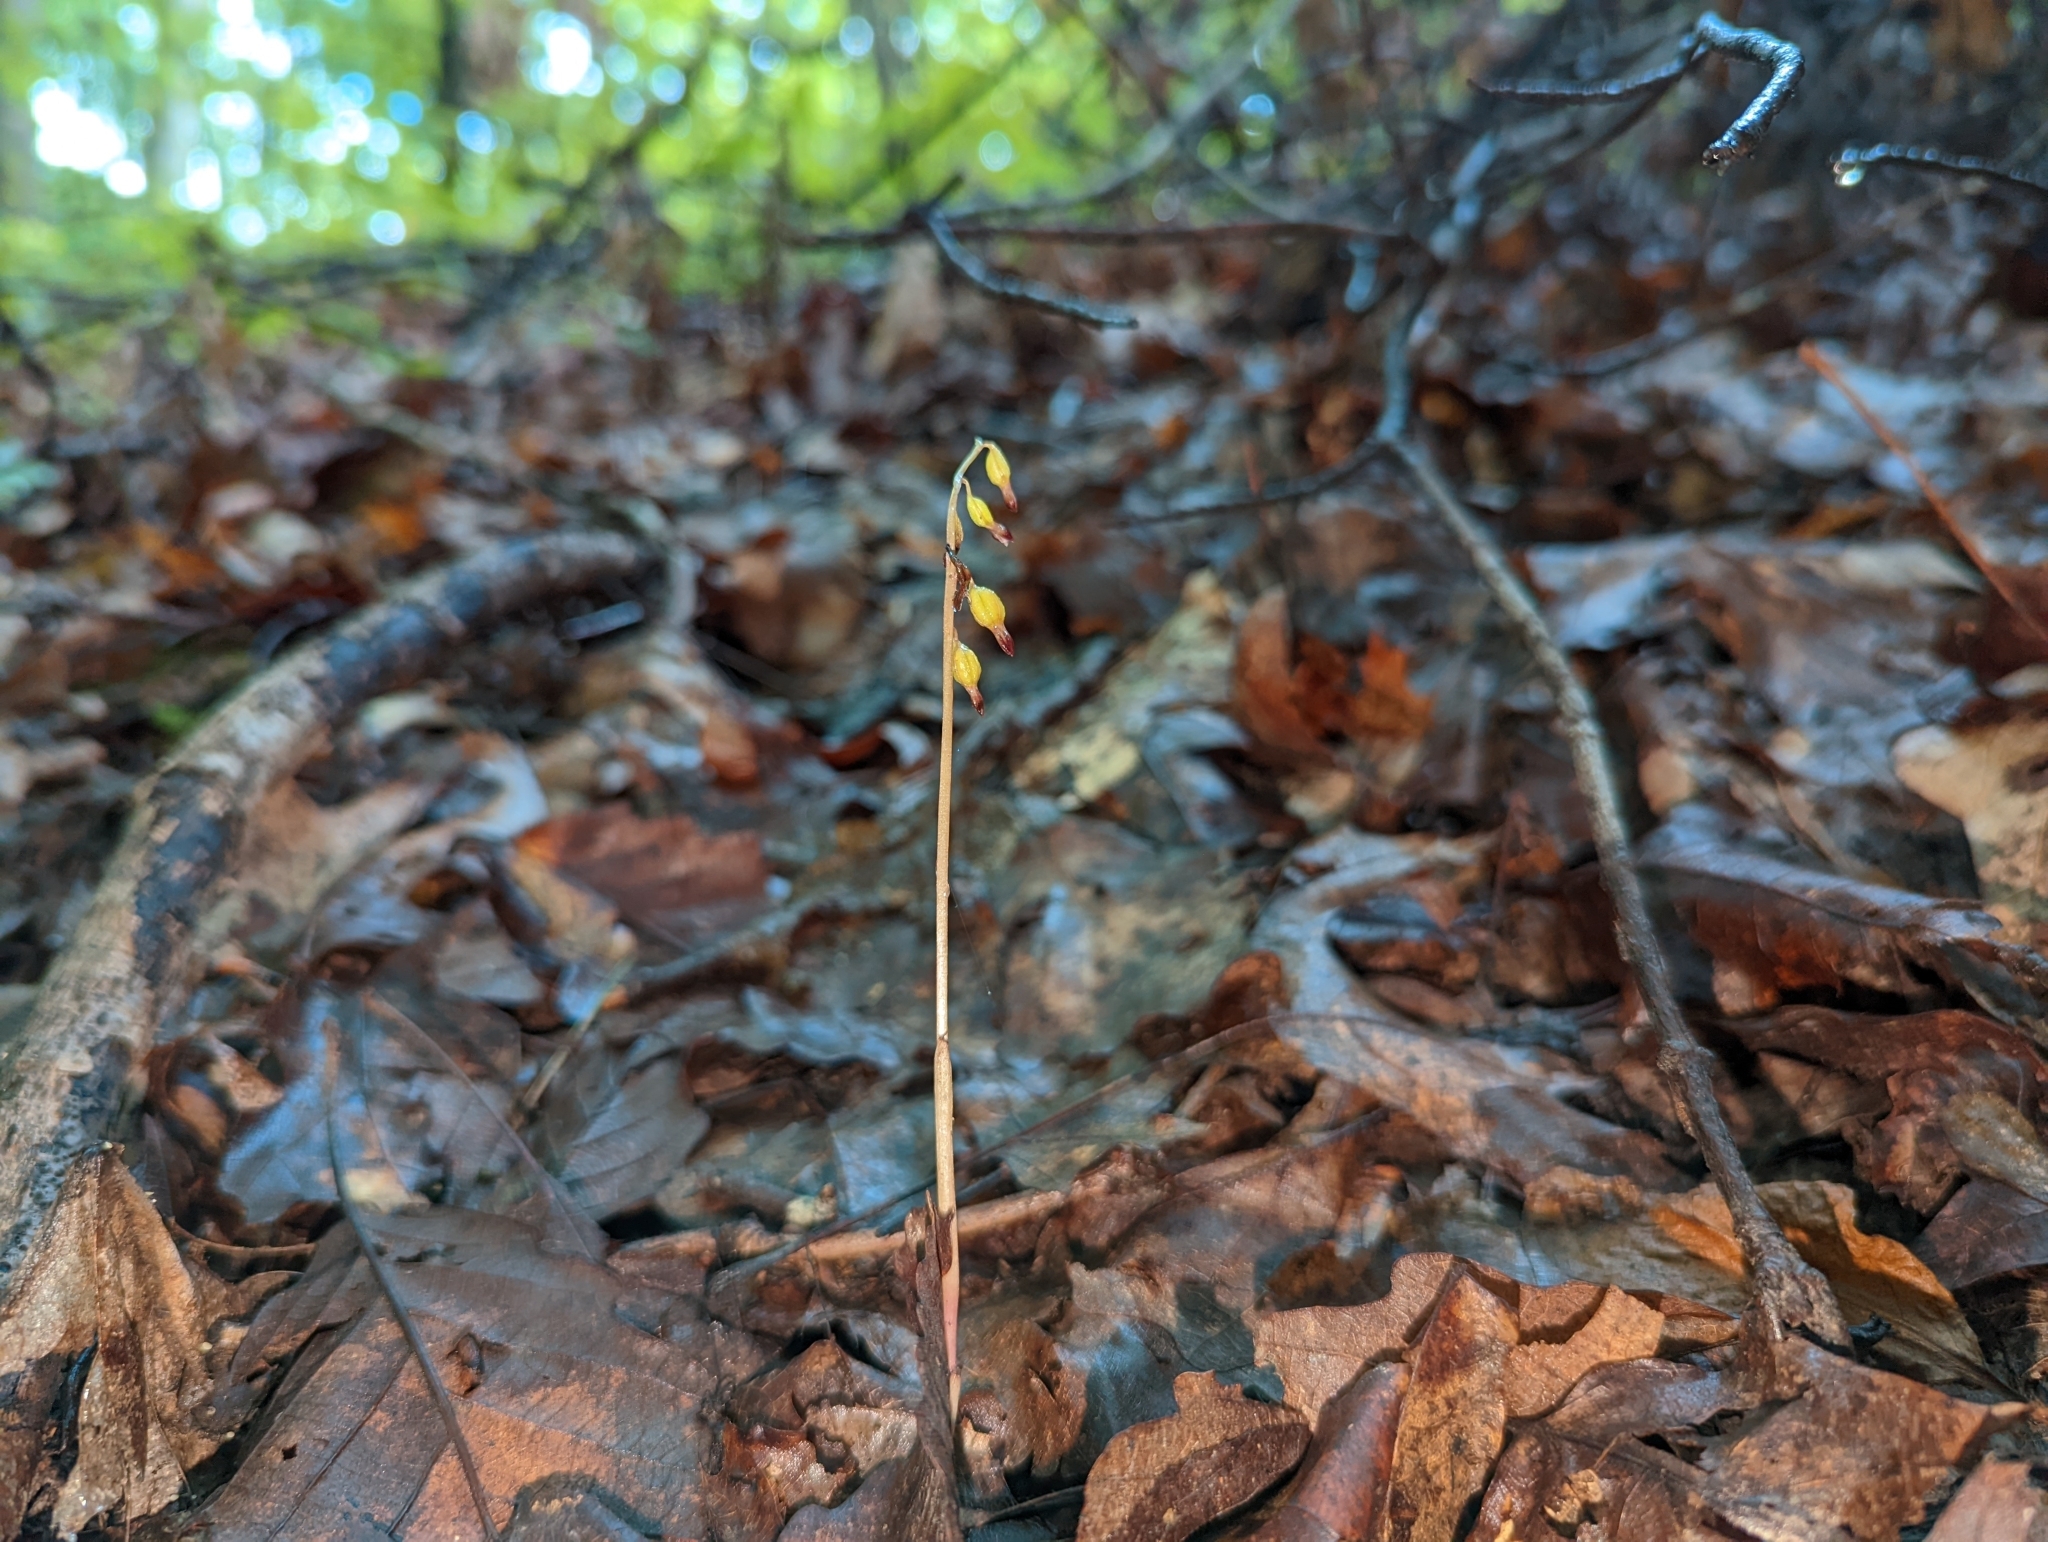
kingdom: Plantae
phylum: Tracheophyta
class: Liliopsida
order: Asparagales
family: Orchidaceae
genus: Corallorhiza
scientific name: Corallorhiza odontorhiza
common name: Autumn coralroot
